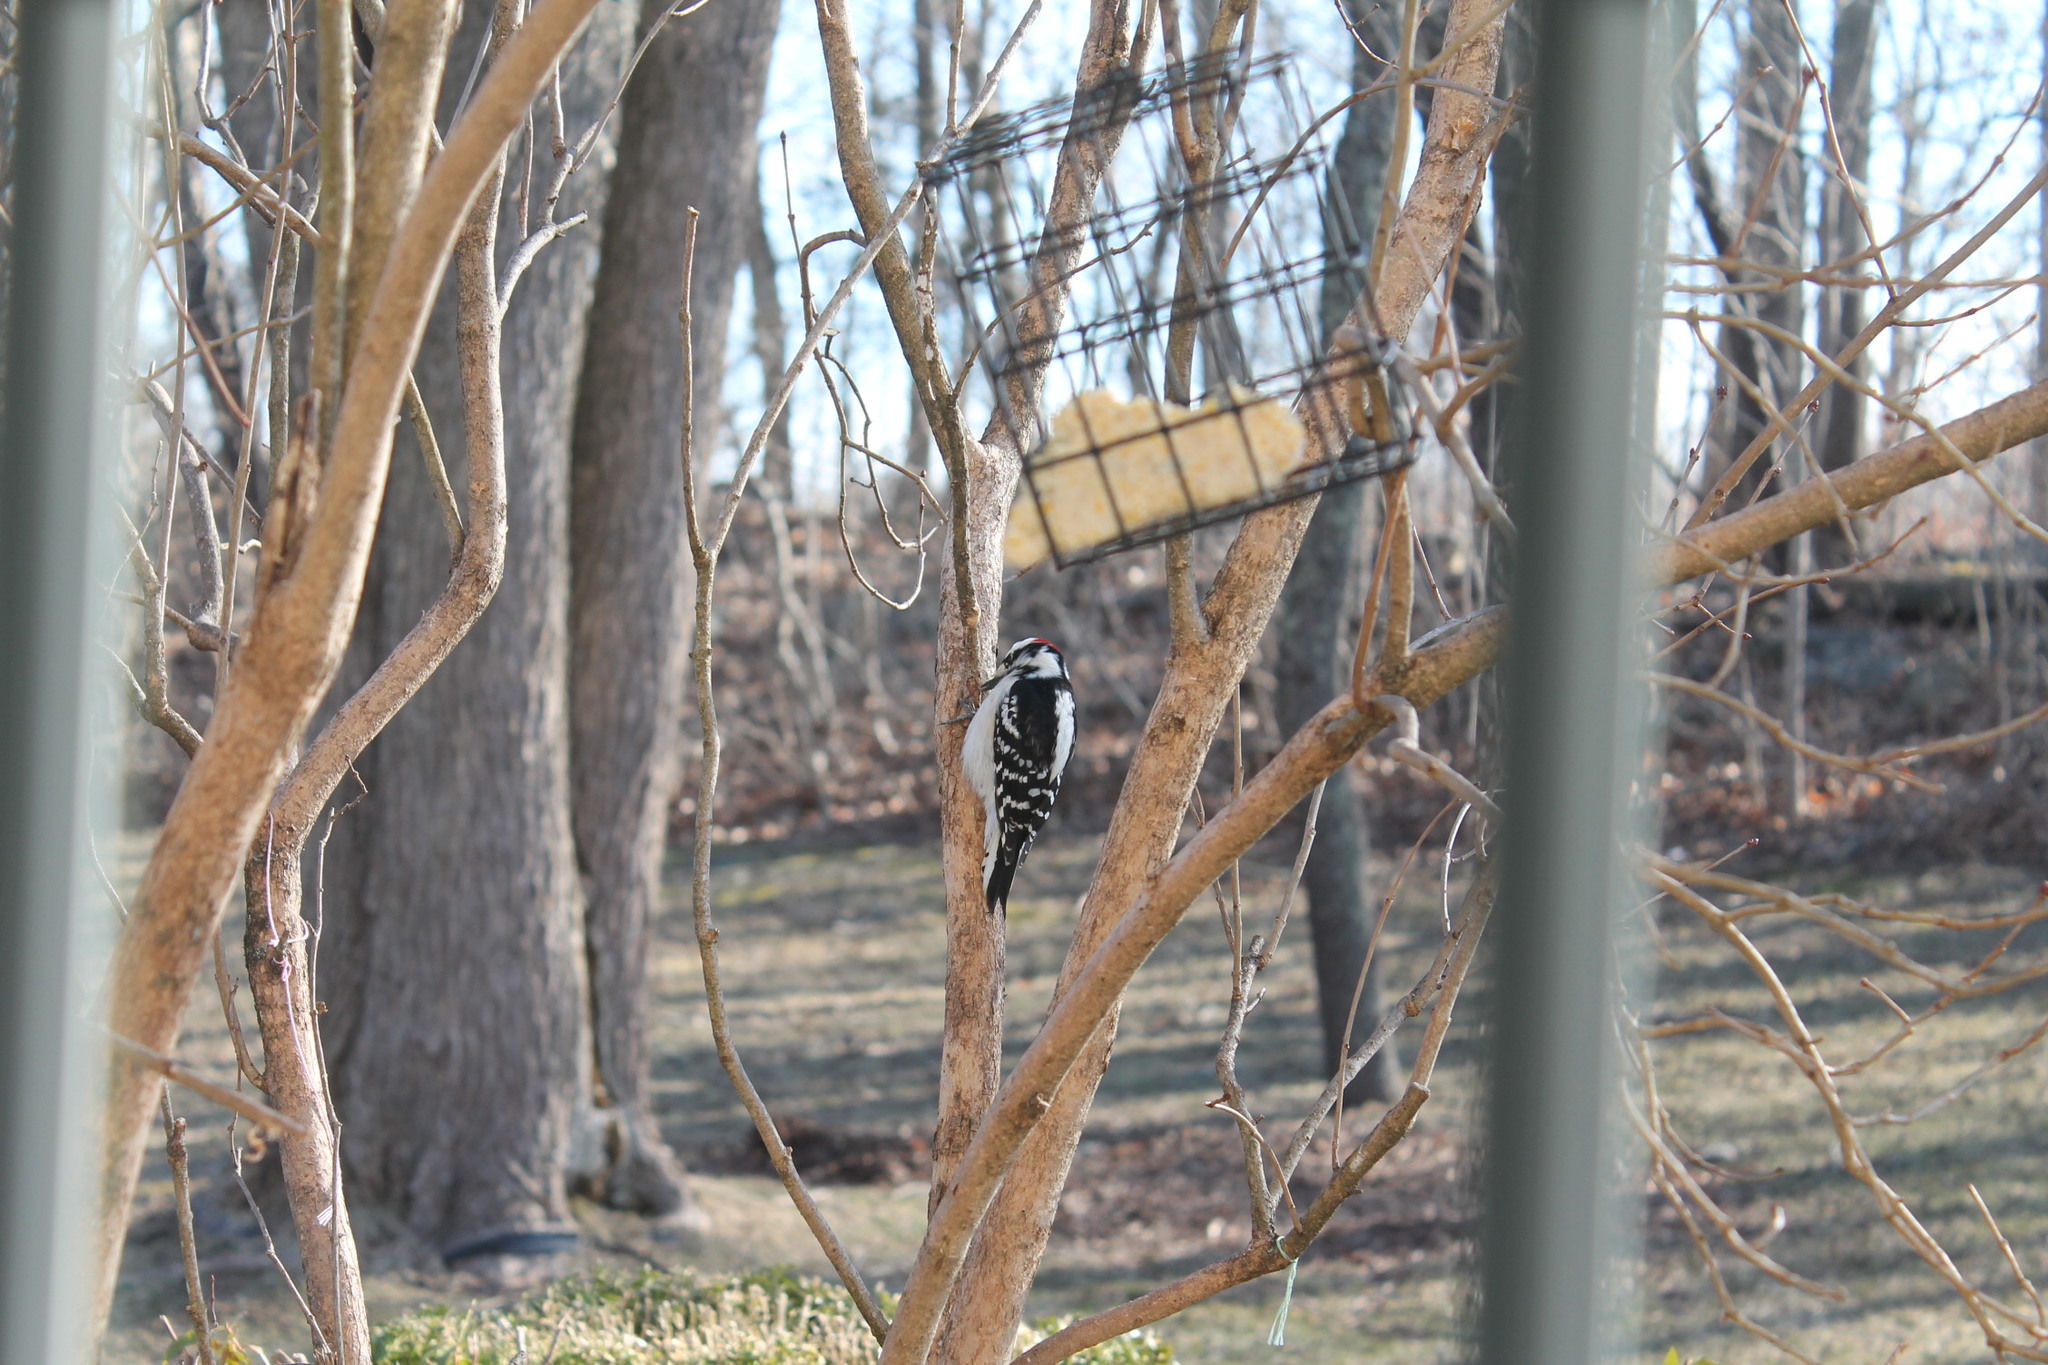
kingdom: Animalia
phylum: Chordata
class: Aves
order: Piciformes
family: Picidae
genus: Dryobates
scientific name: Dryobates pubescens
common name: Downy woodpecker
